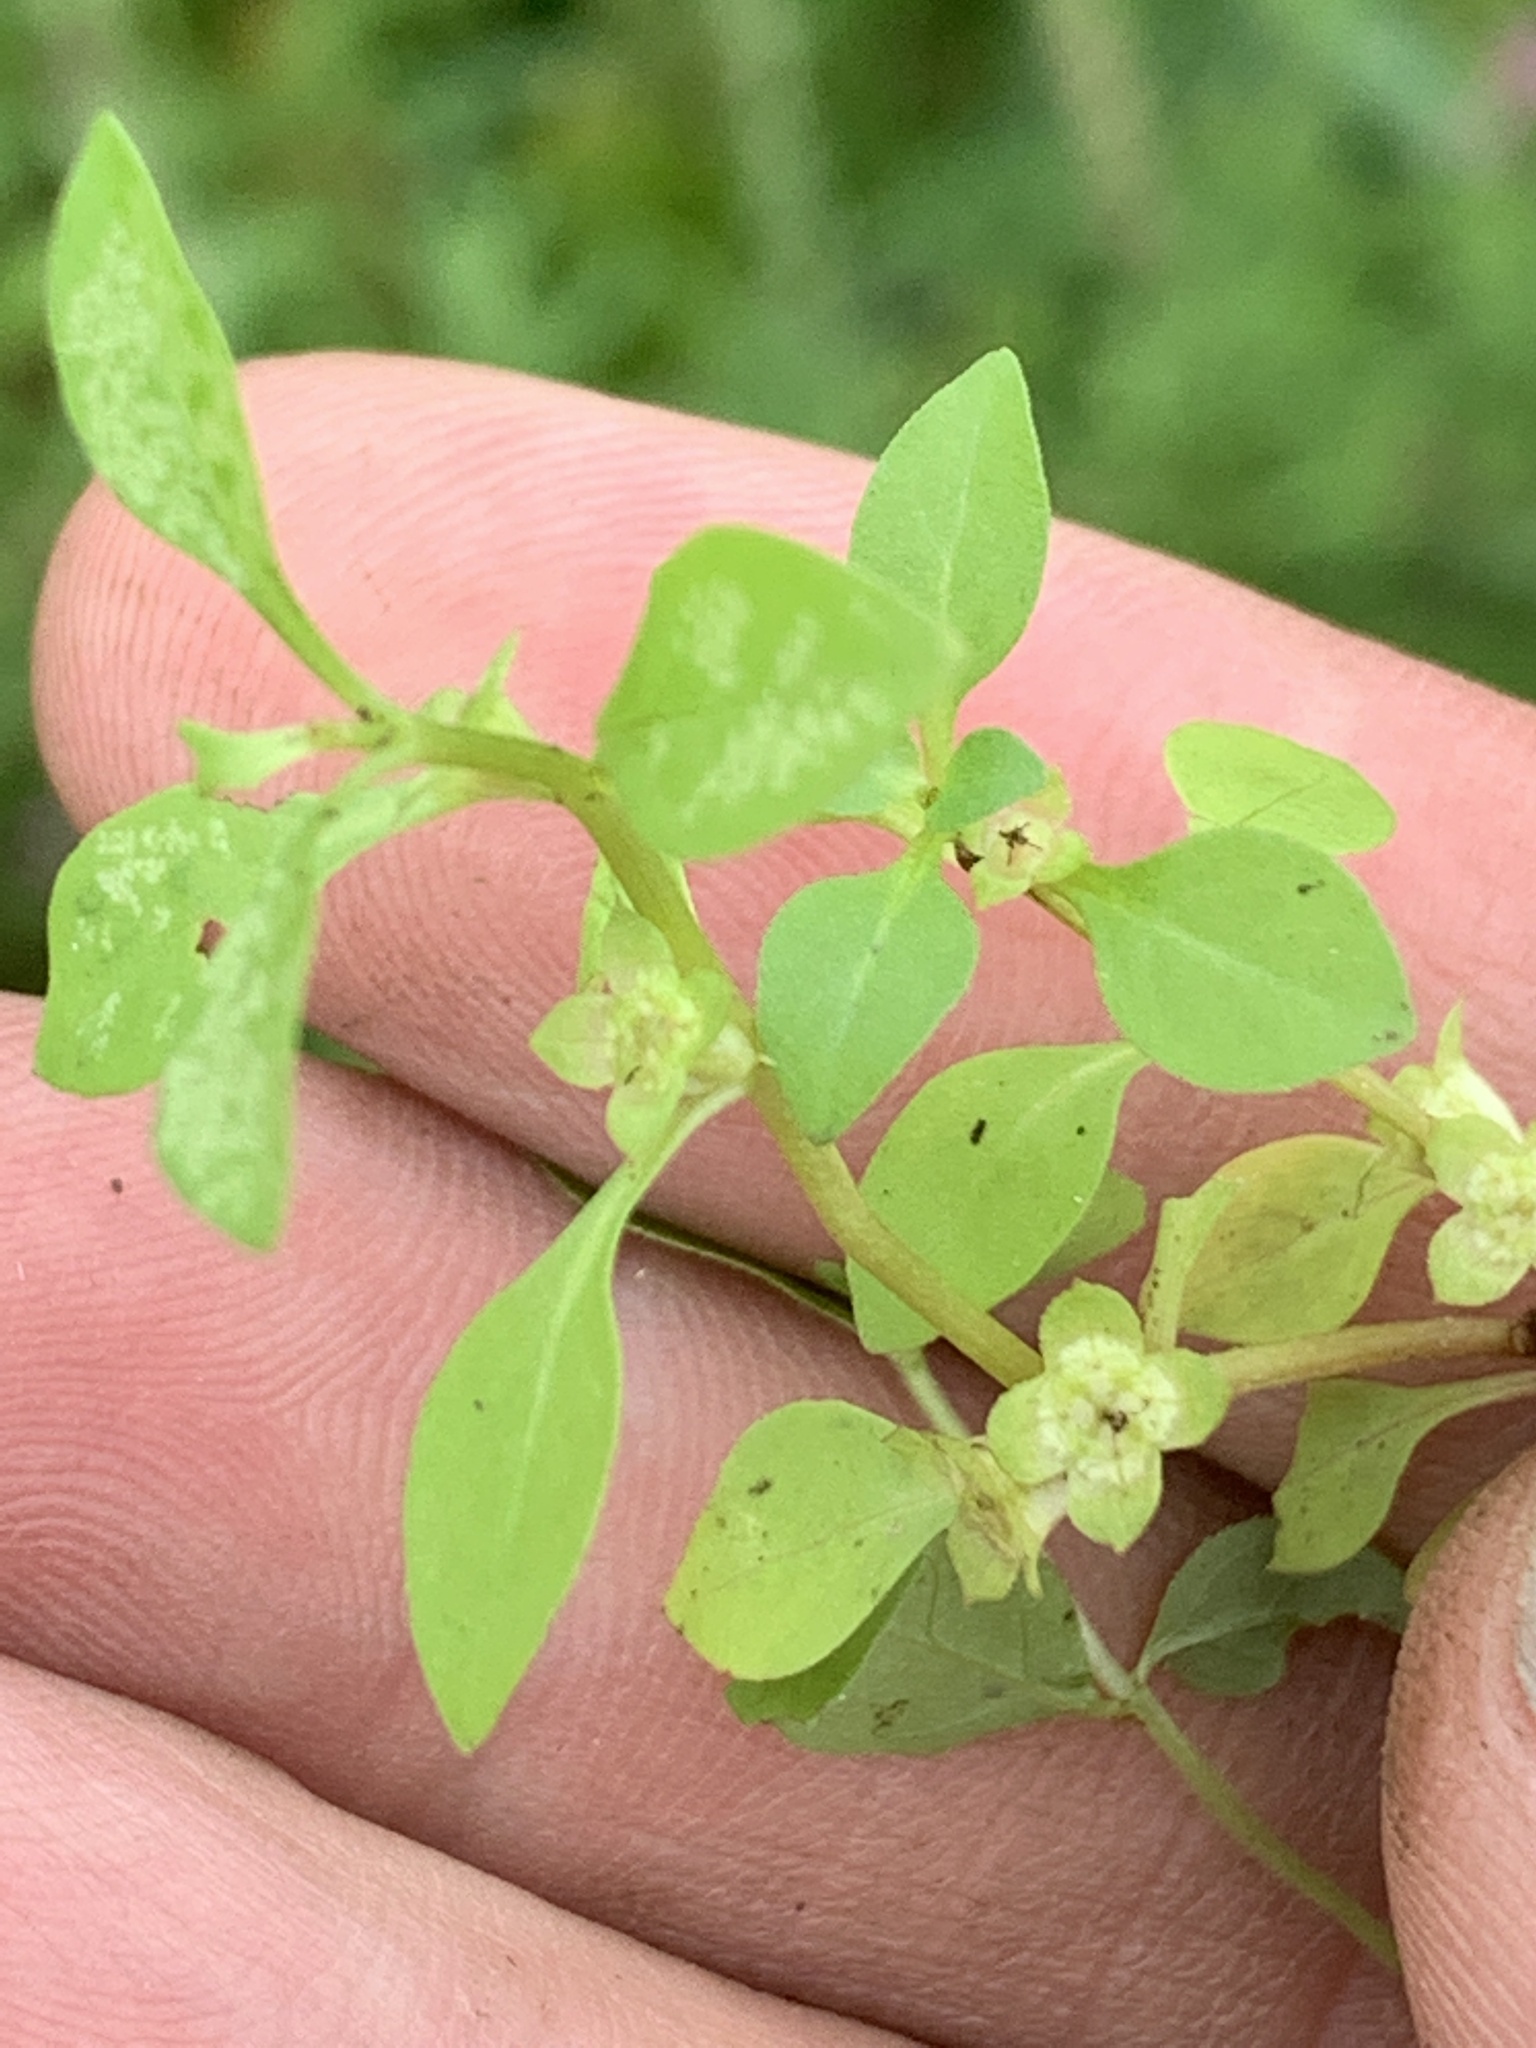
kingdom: Plantae
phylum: Tracheophyta
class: Magnoliopsida
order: Myrtales
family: Onagraceae
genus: Ludwigia
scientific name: Ludwigia palustris
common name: Hampshire-purslane
